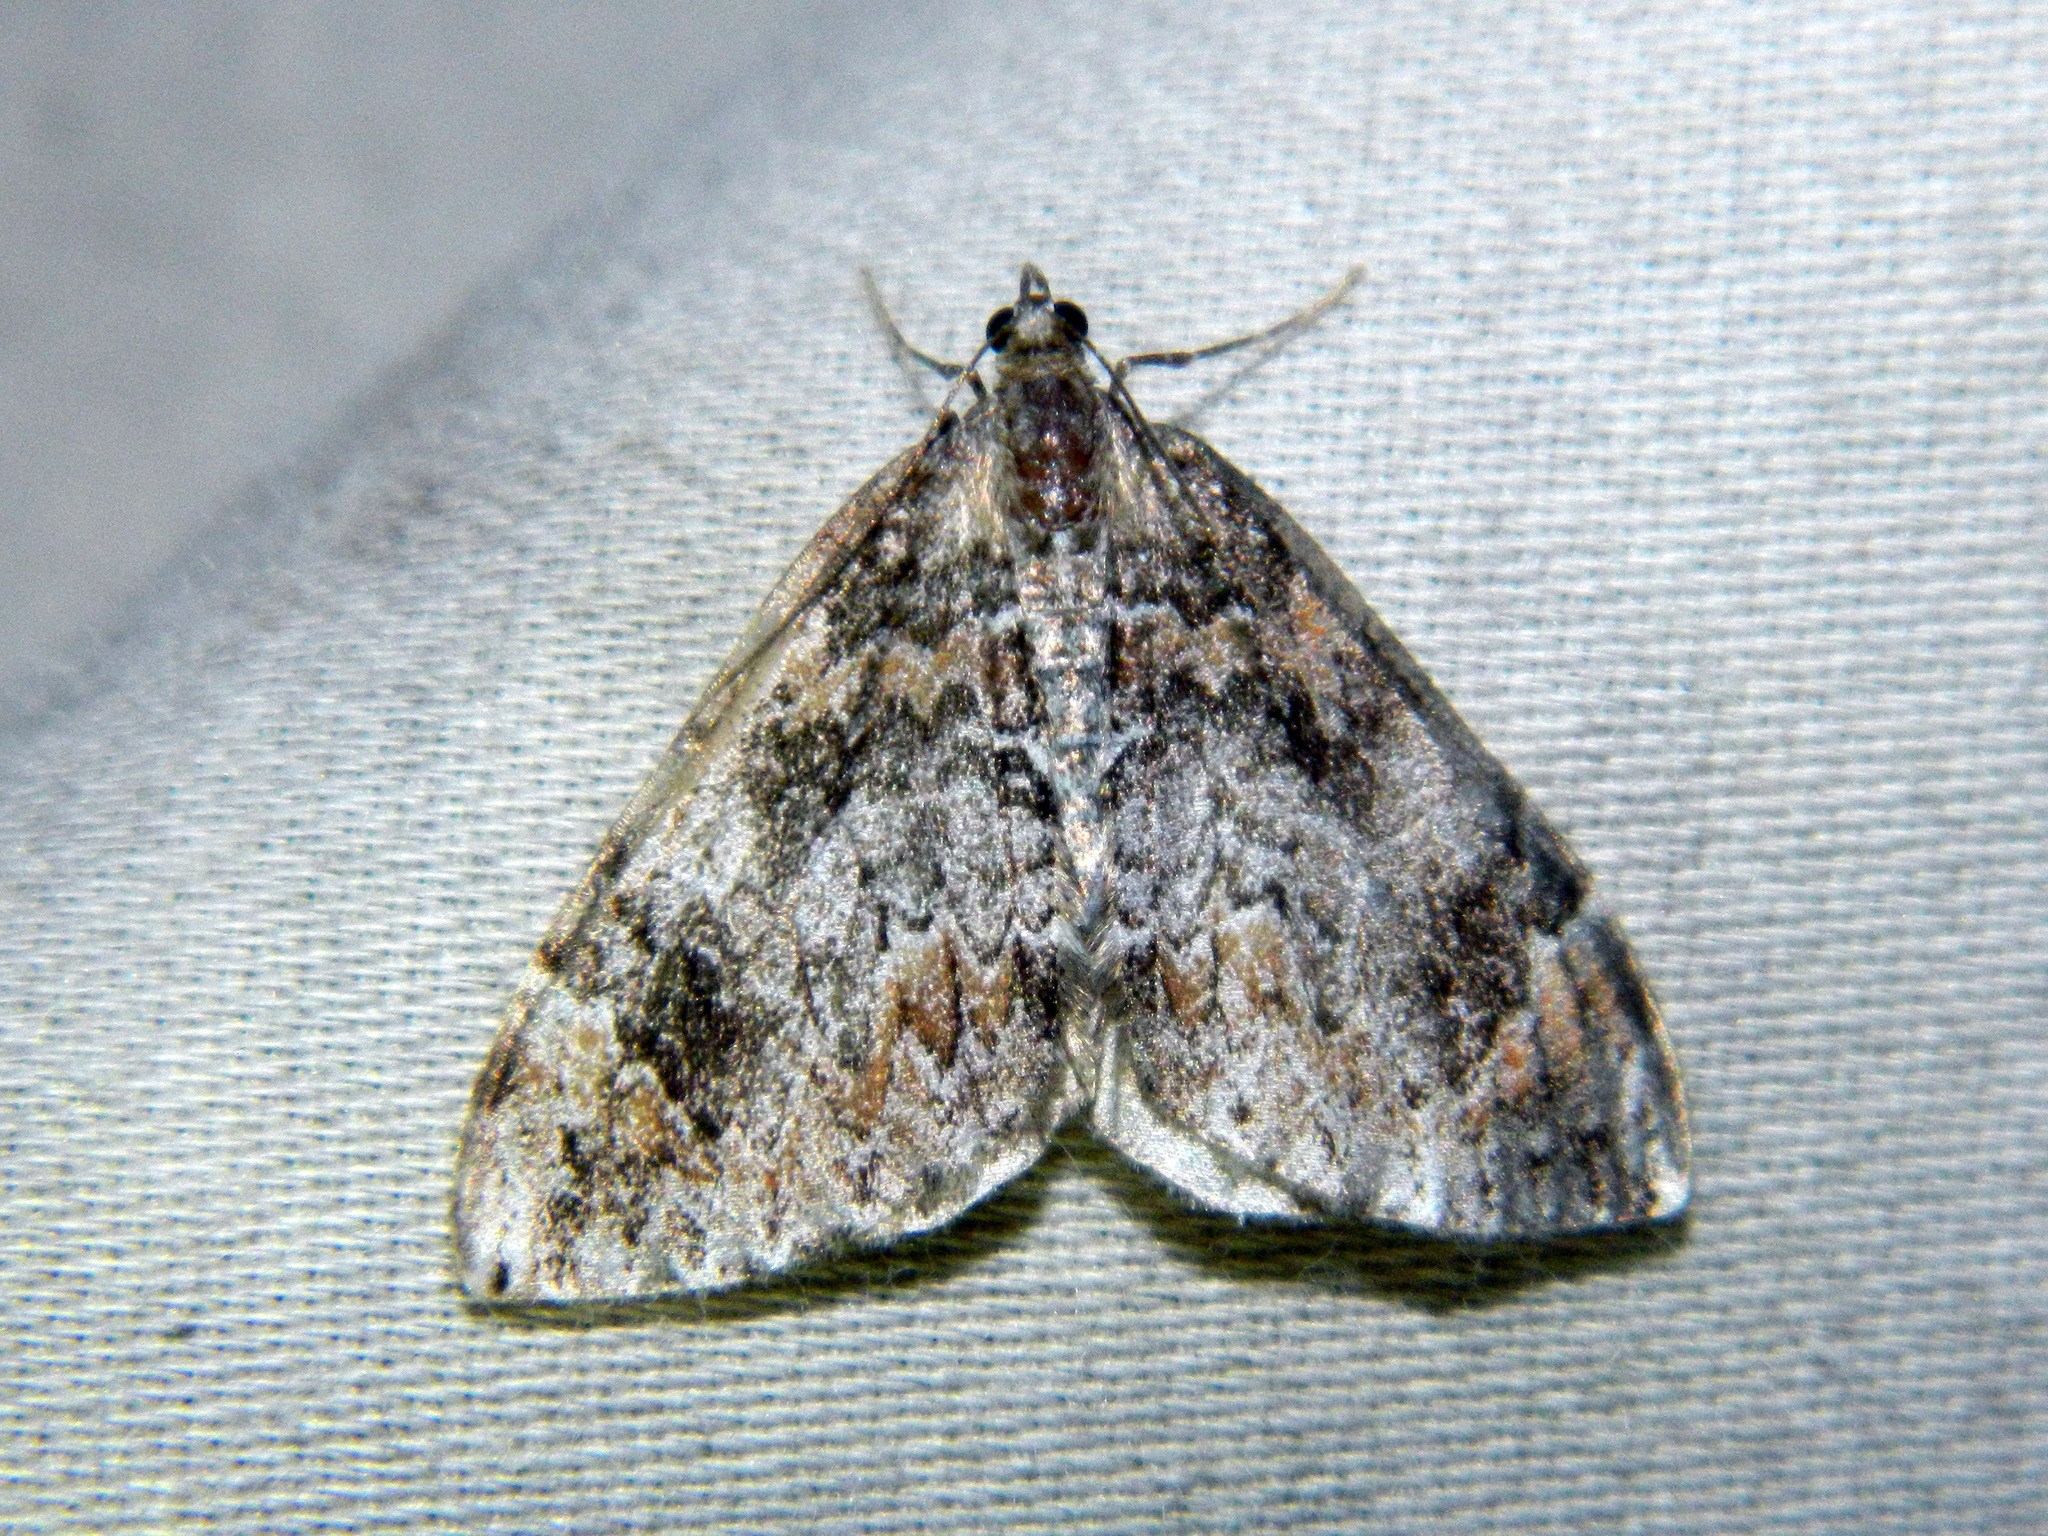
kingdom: Animalia
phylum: Arthropoda
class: Insecta
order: Lepidoptera
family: Geometridae
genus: Dysstroma
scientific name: Dysstroma citrata
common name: Dark marbled carpet
